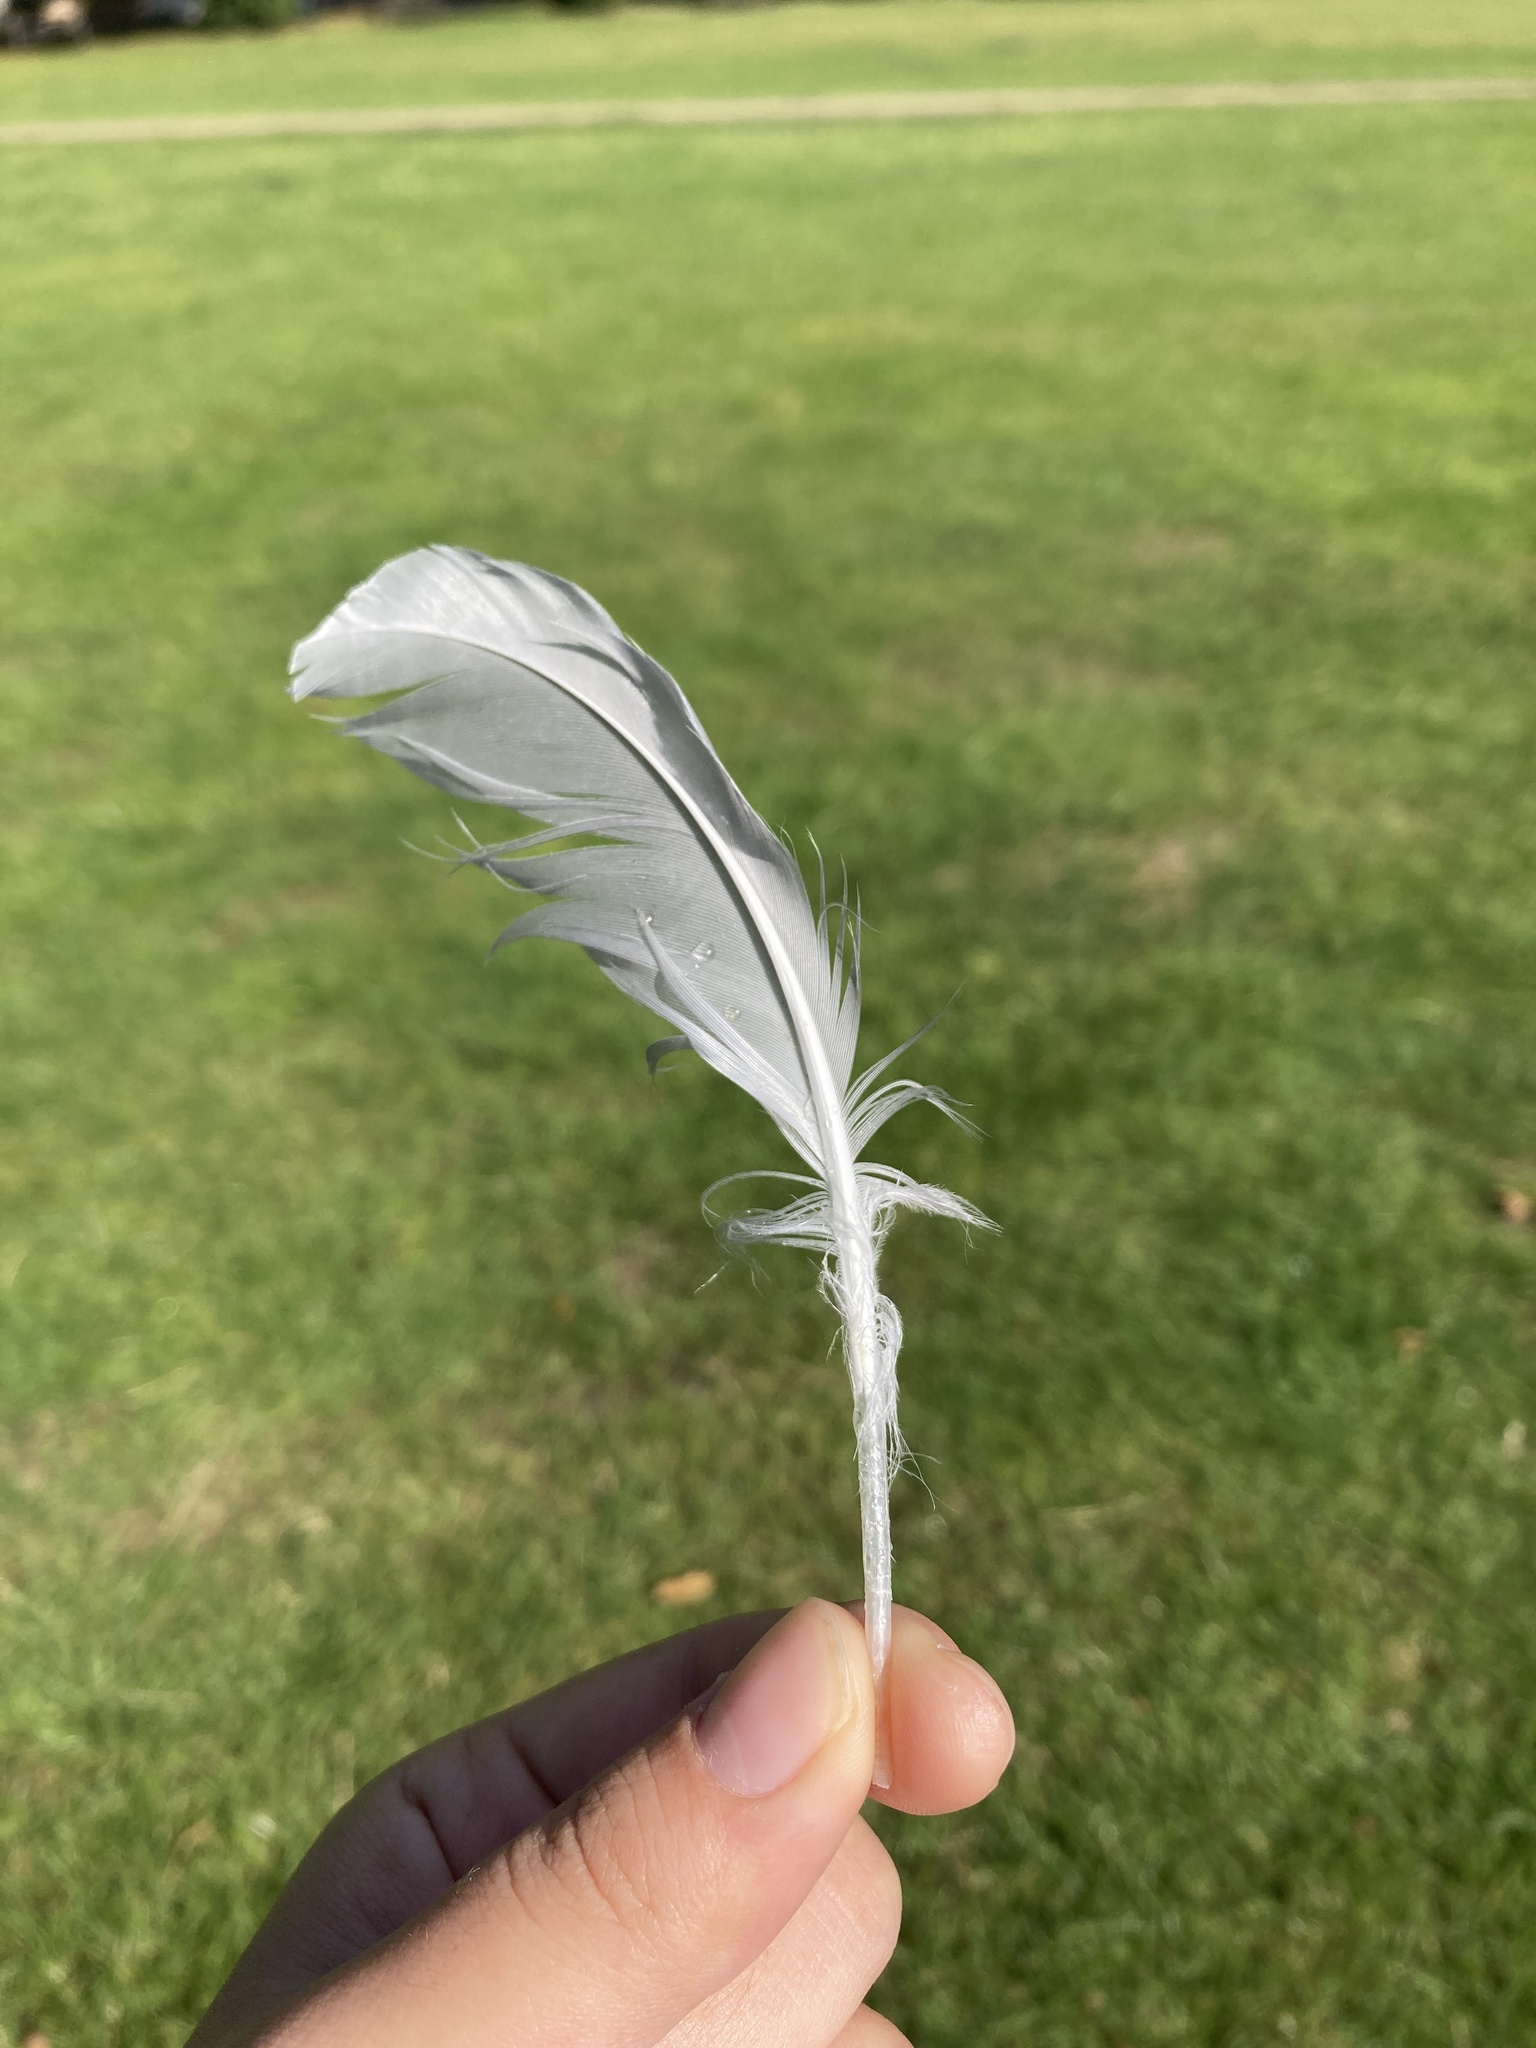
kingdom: Animalia
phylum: Chordata
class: Aves
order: Charadriiformes
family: Laridae
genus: Chroicocephalus
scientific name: Chroicocephalus ridibundus
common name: Black-headed gull
